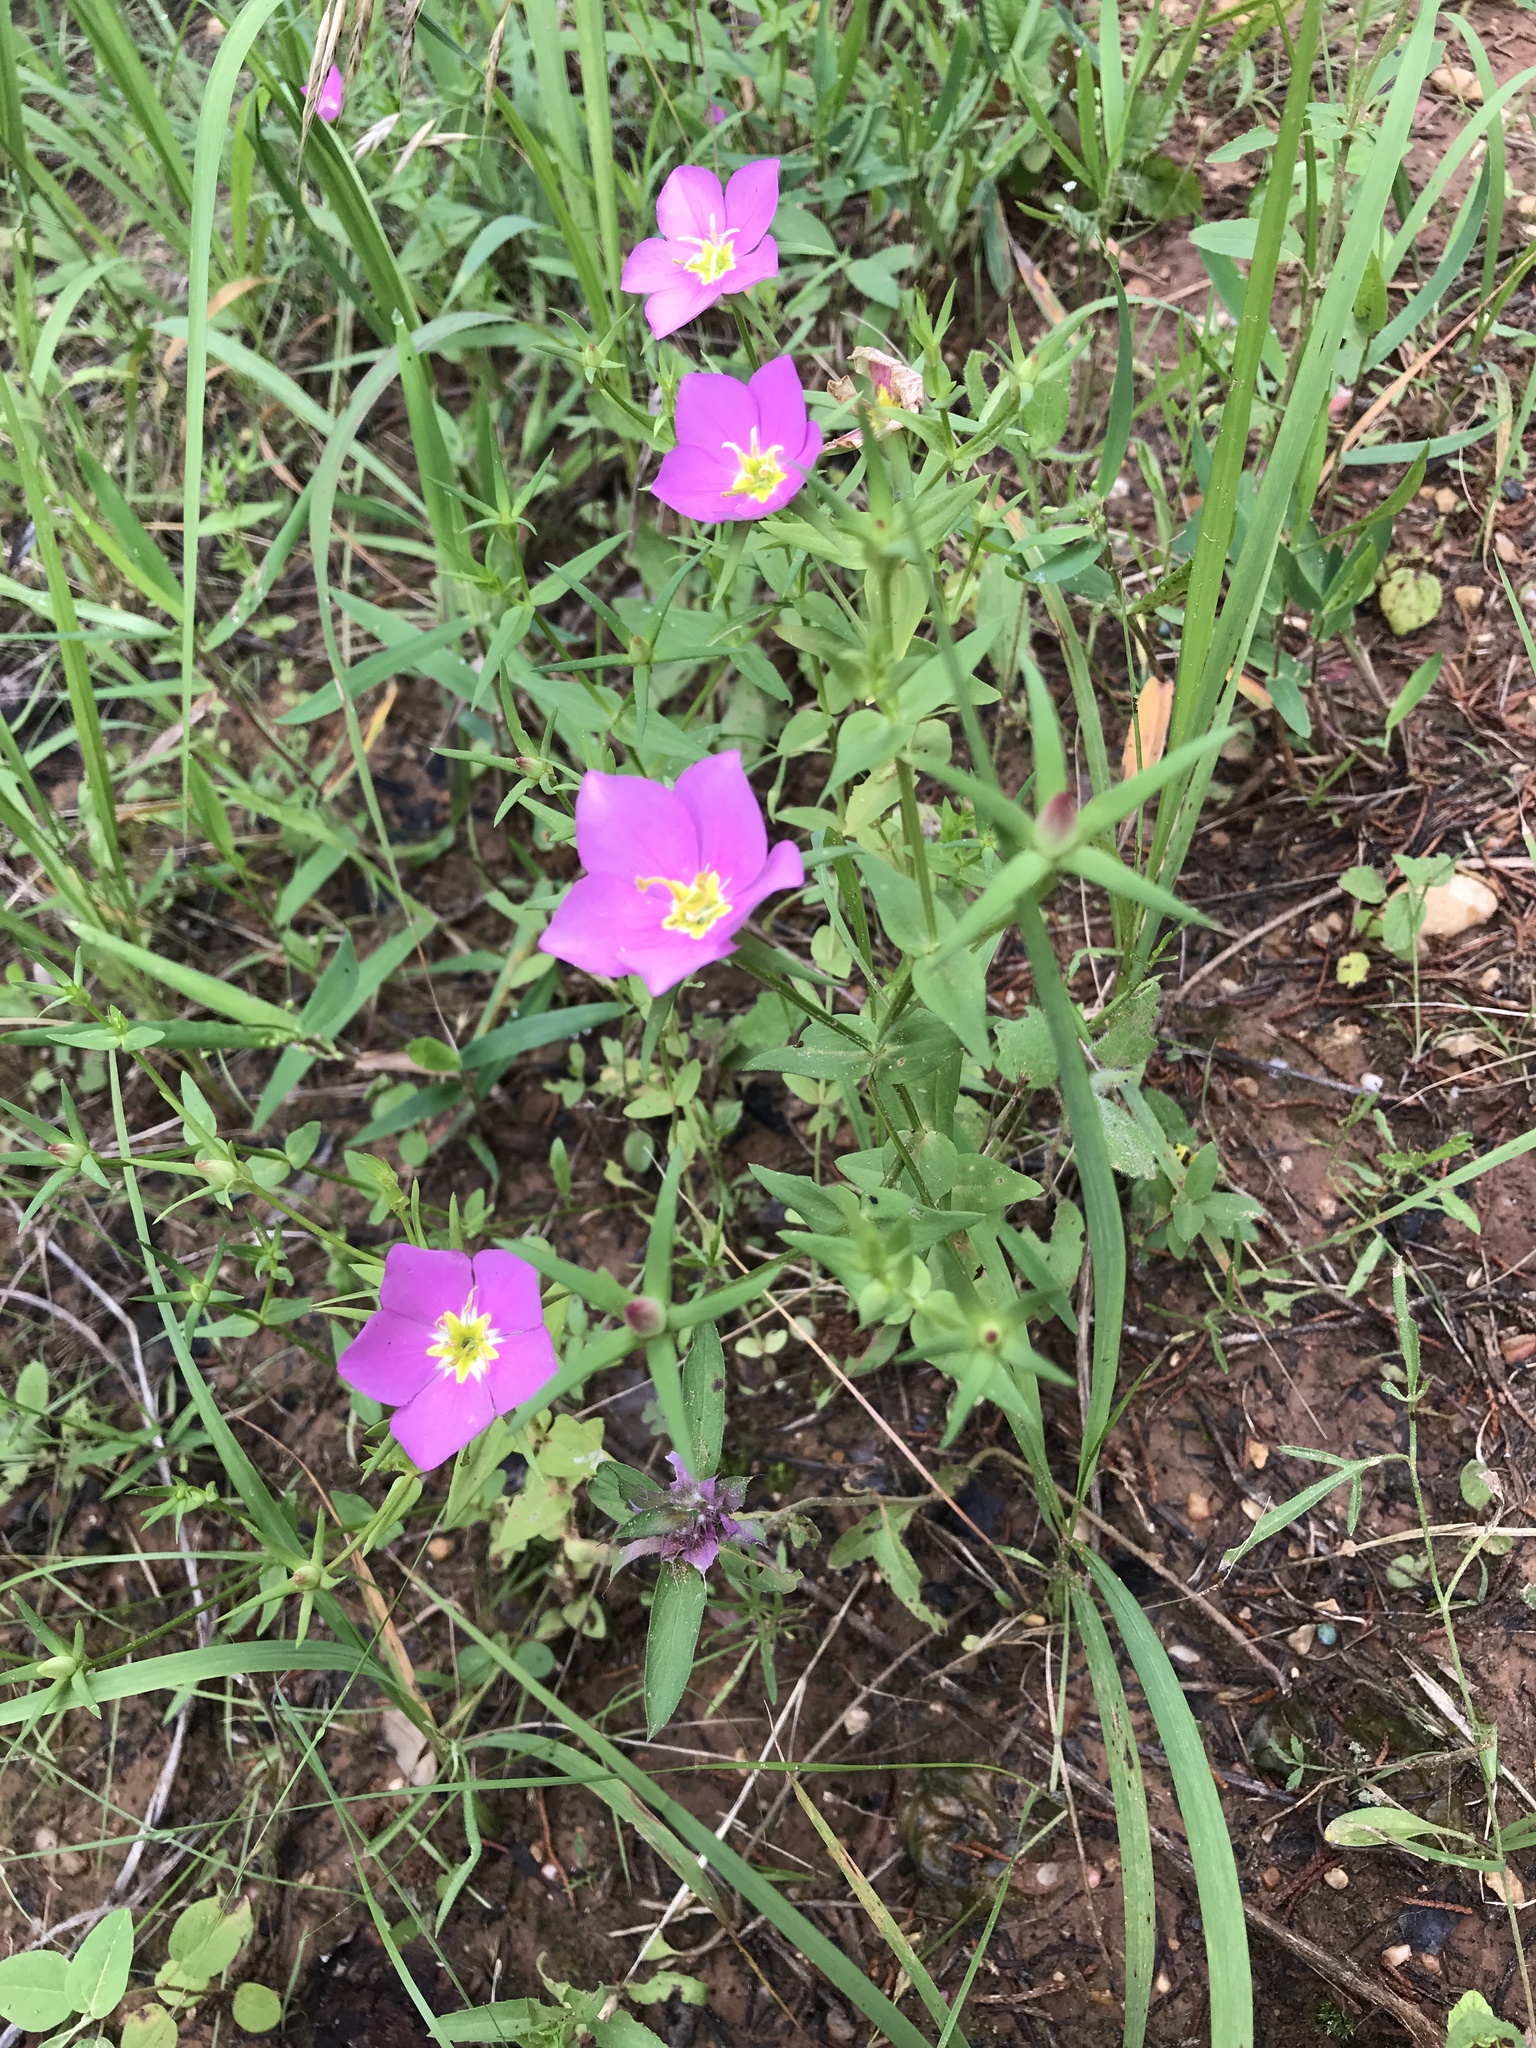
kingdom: Plantae
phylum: Tracheophyta
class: Magnoliopsida
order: Gentianales
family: Gentianaceae
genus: Sabatia
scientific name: Sabatia campestris
